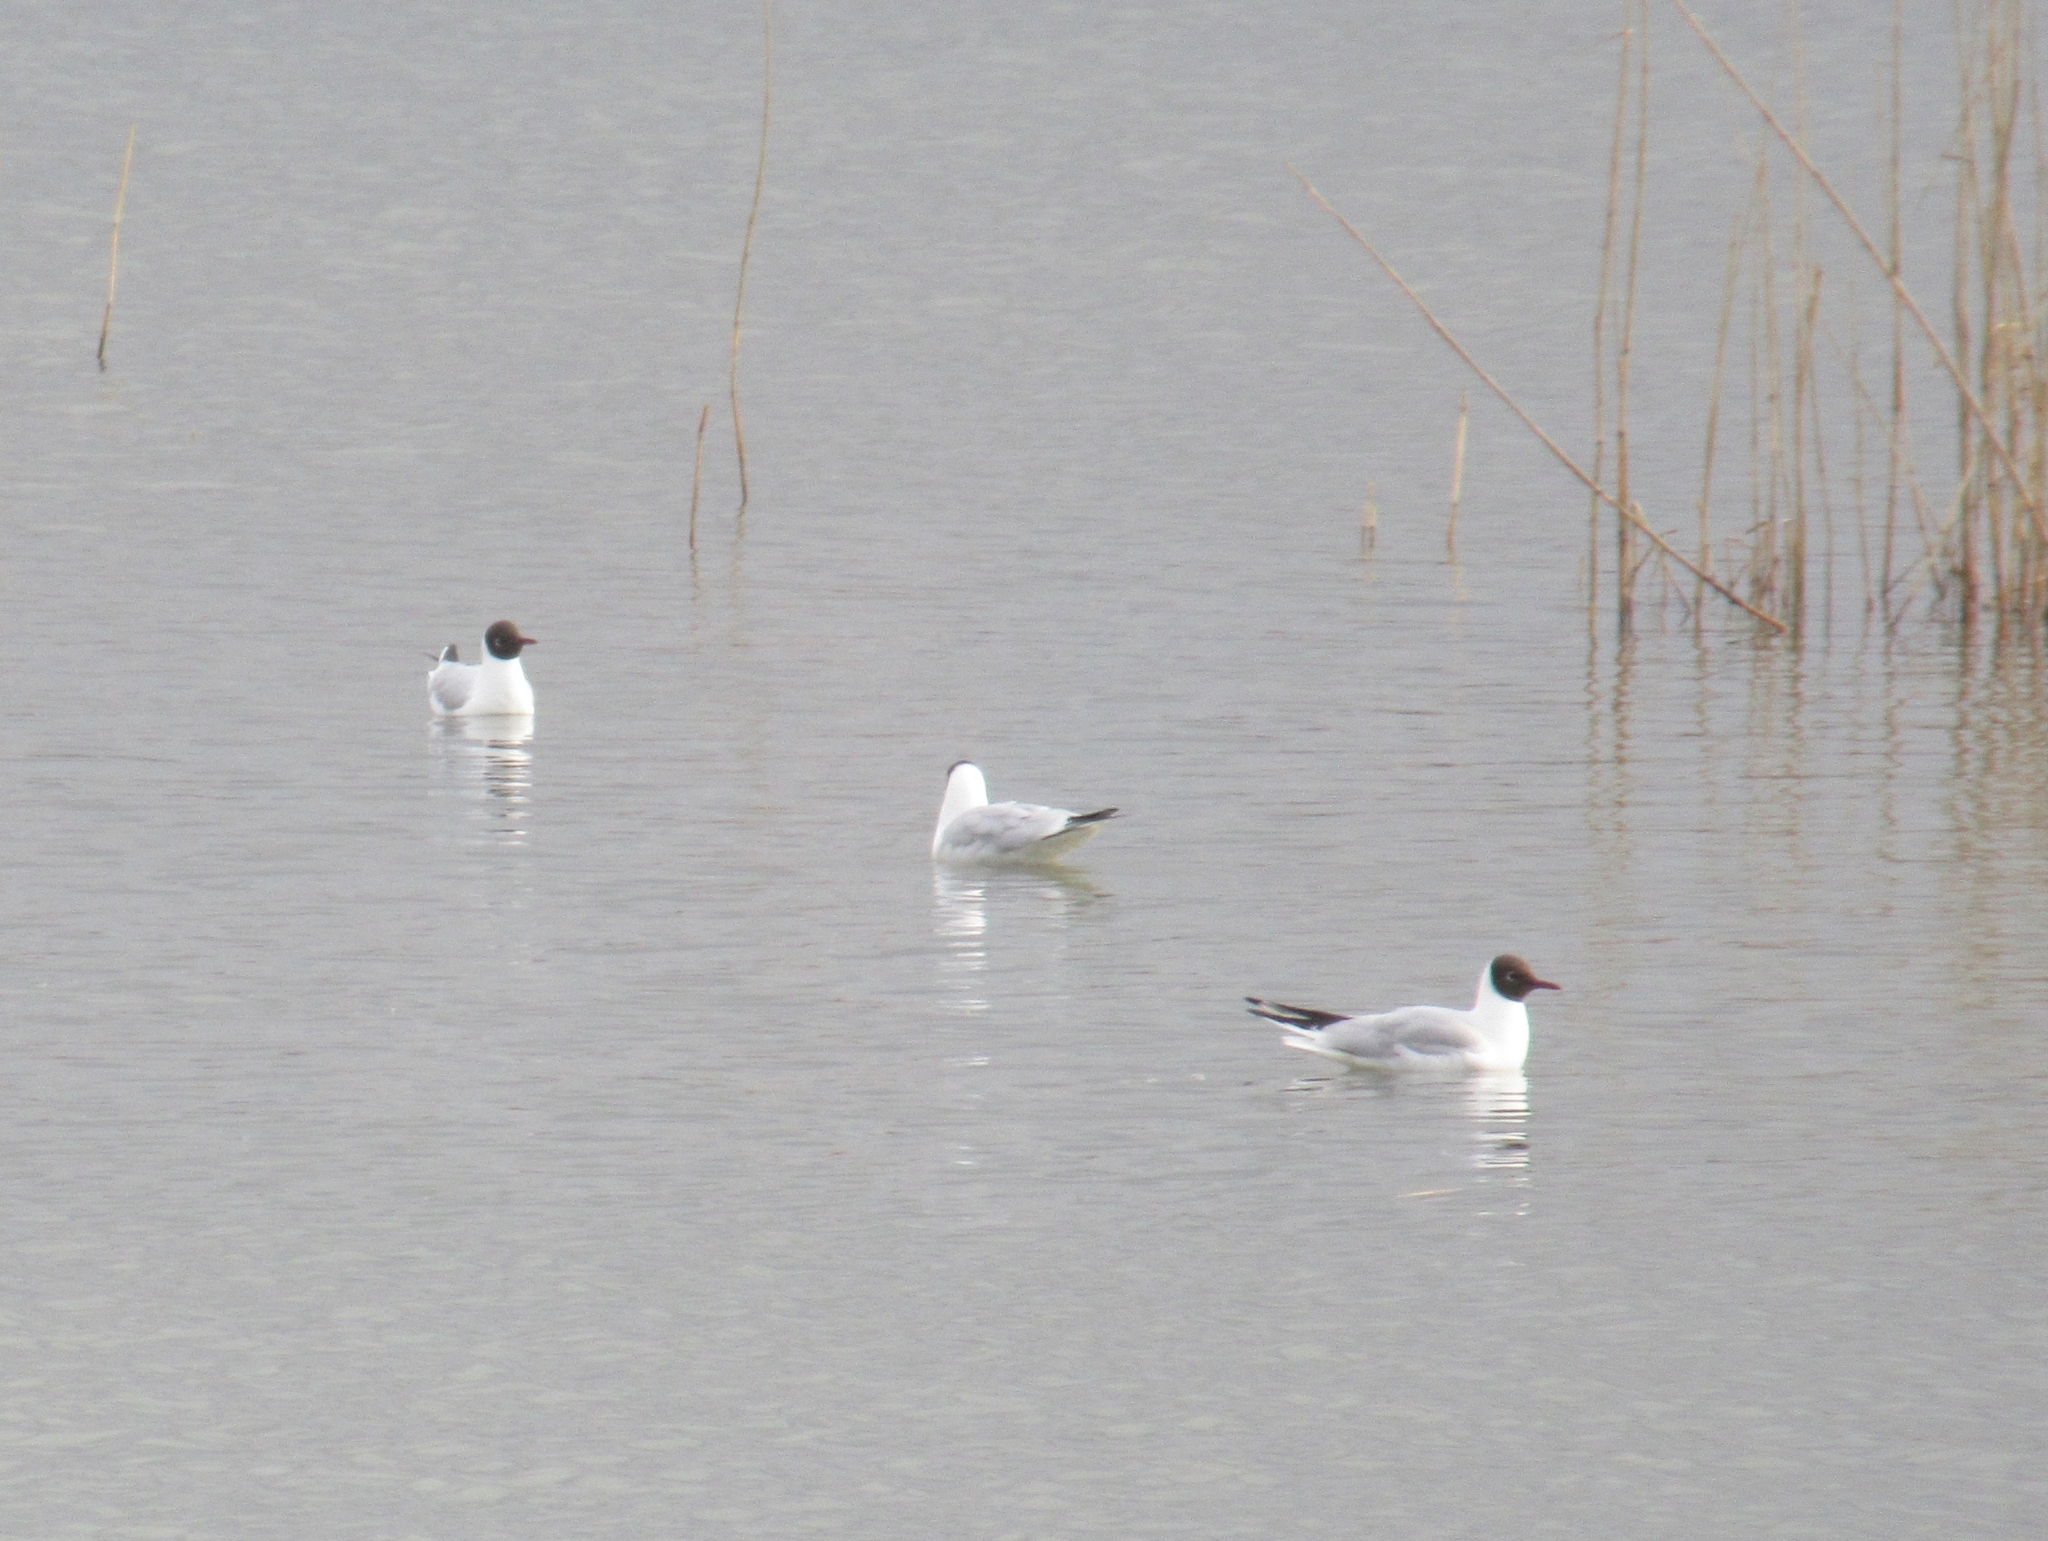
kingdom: Animalia
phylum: Chordata
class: Aves
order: Charadriiformes
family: Laridae
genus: Chroicocephalus
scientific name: Chroicocephalus ridibundus
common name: Black-headed gull
